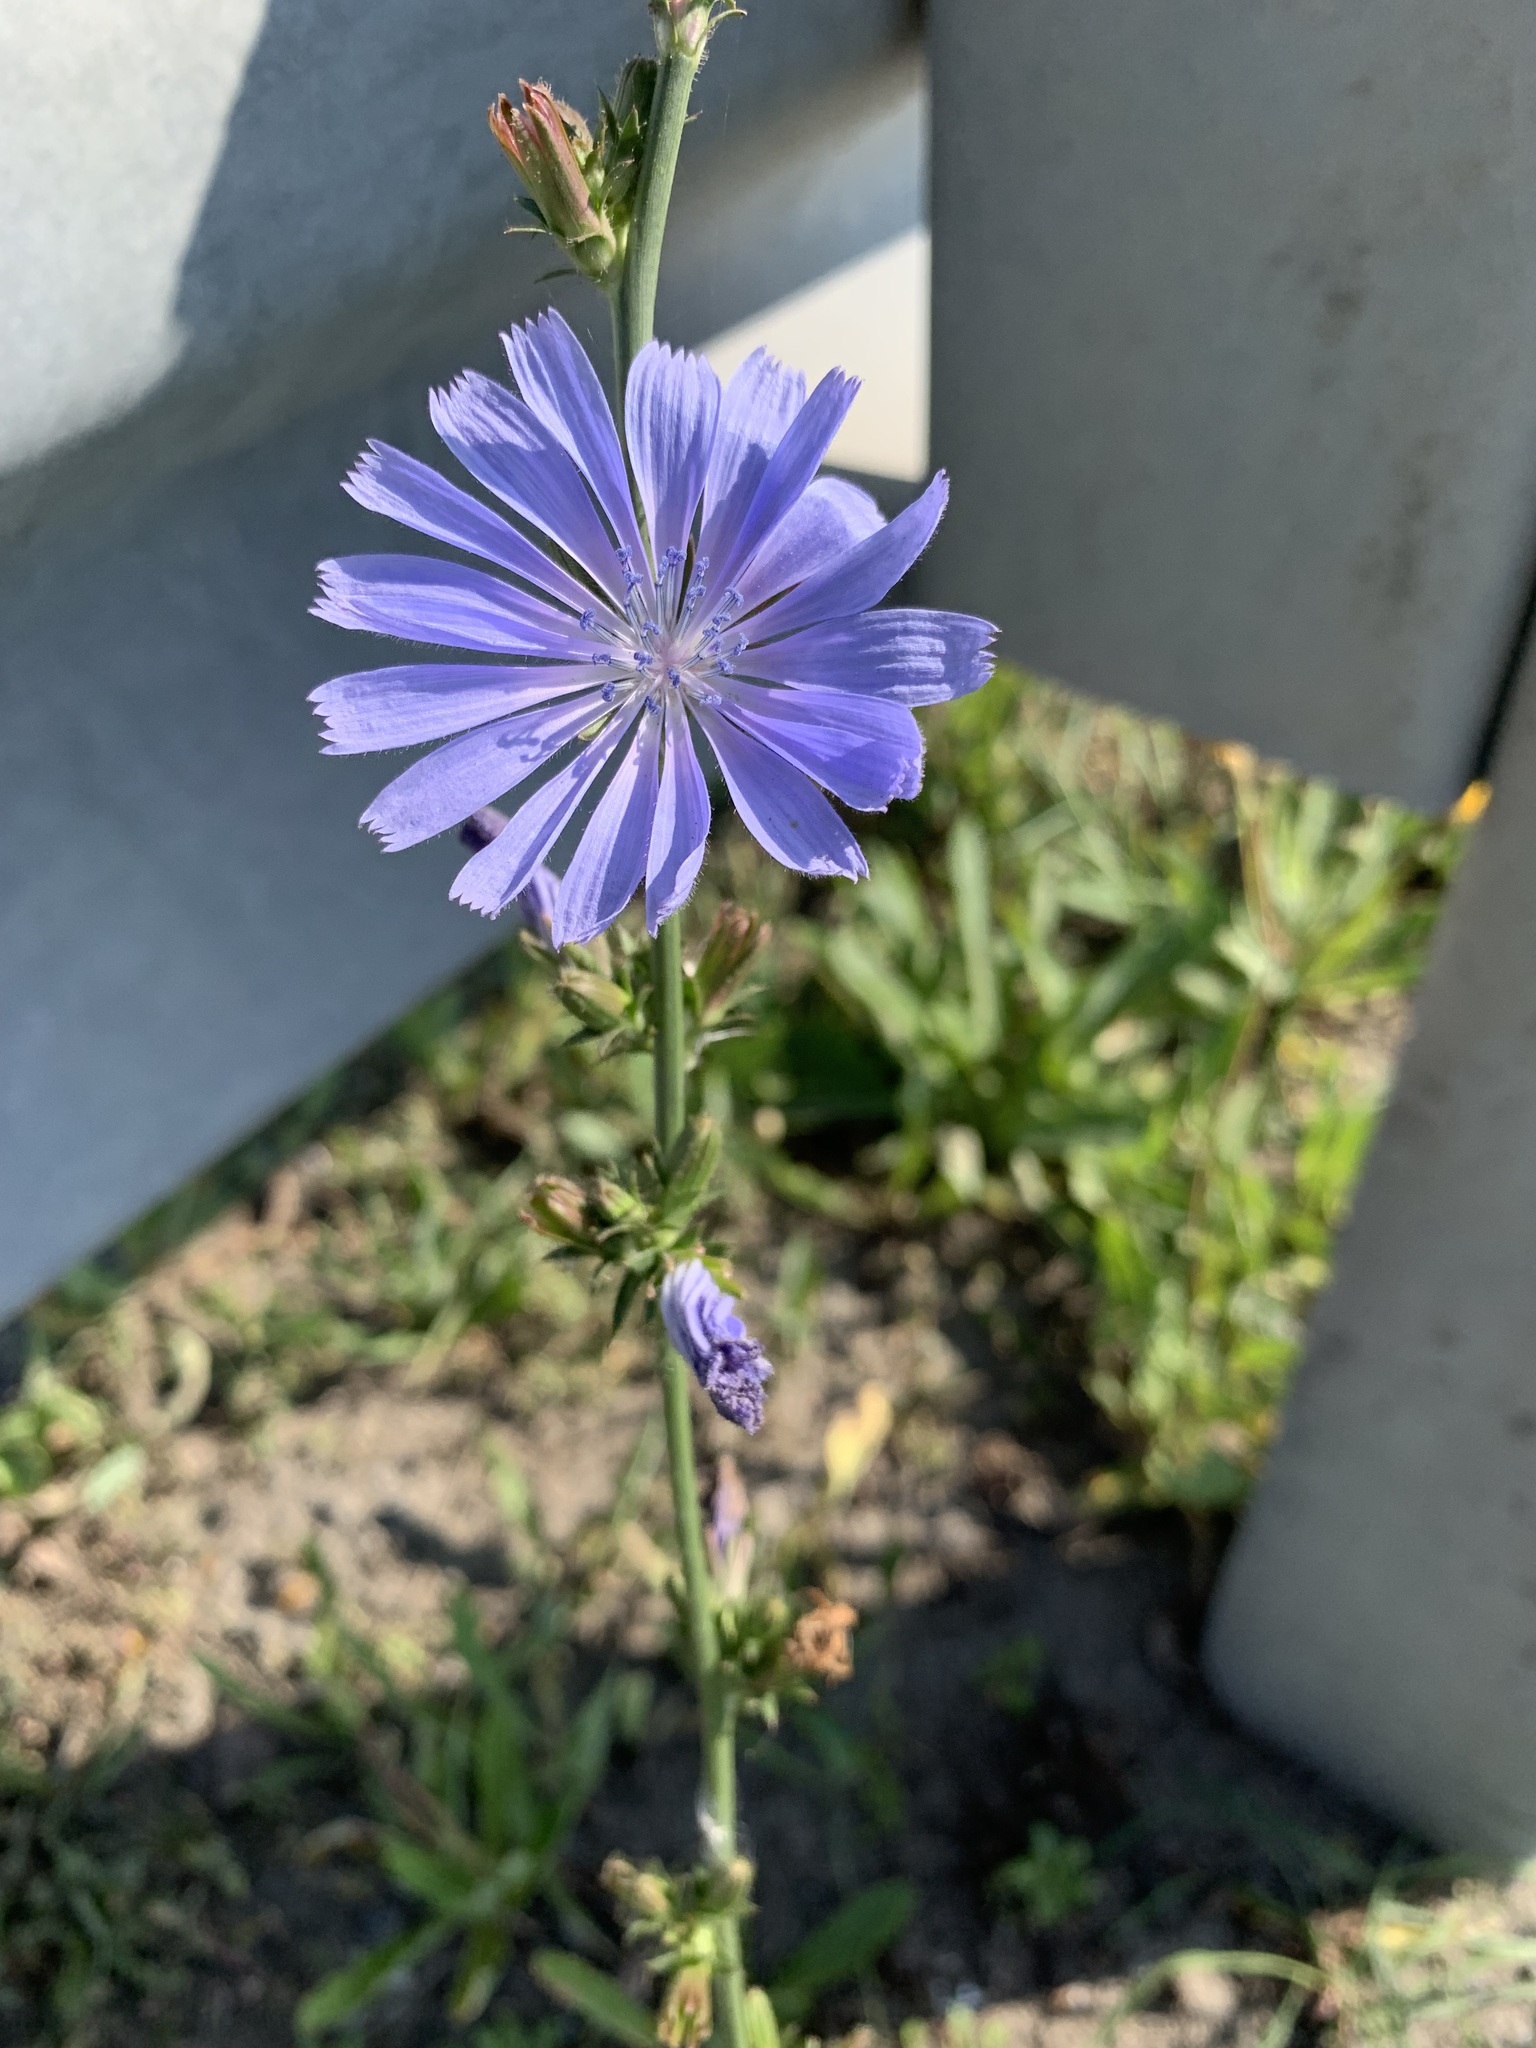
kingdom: Plantae
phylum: Tracheophyta
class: Magnoliopsida
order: Asterales
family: Asteraceae
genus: Cichorium
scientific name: Cichorium intybus
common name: Chicory
